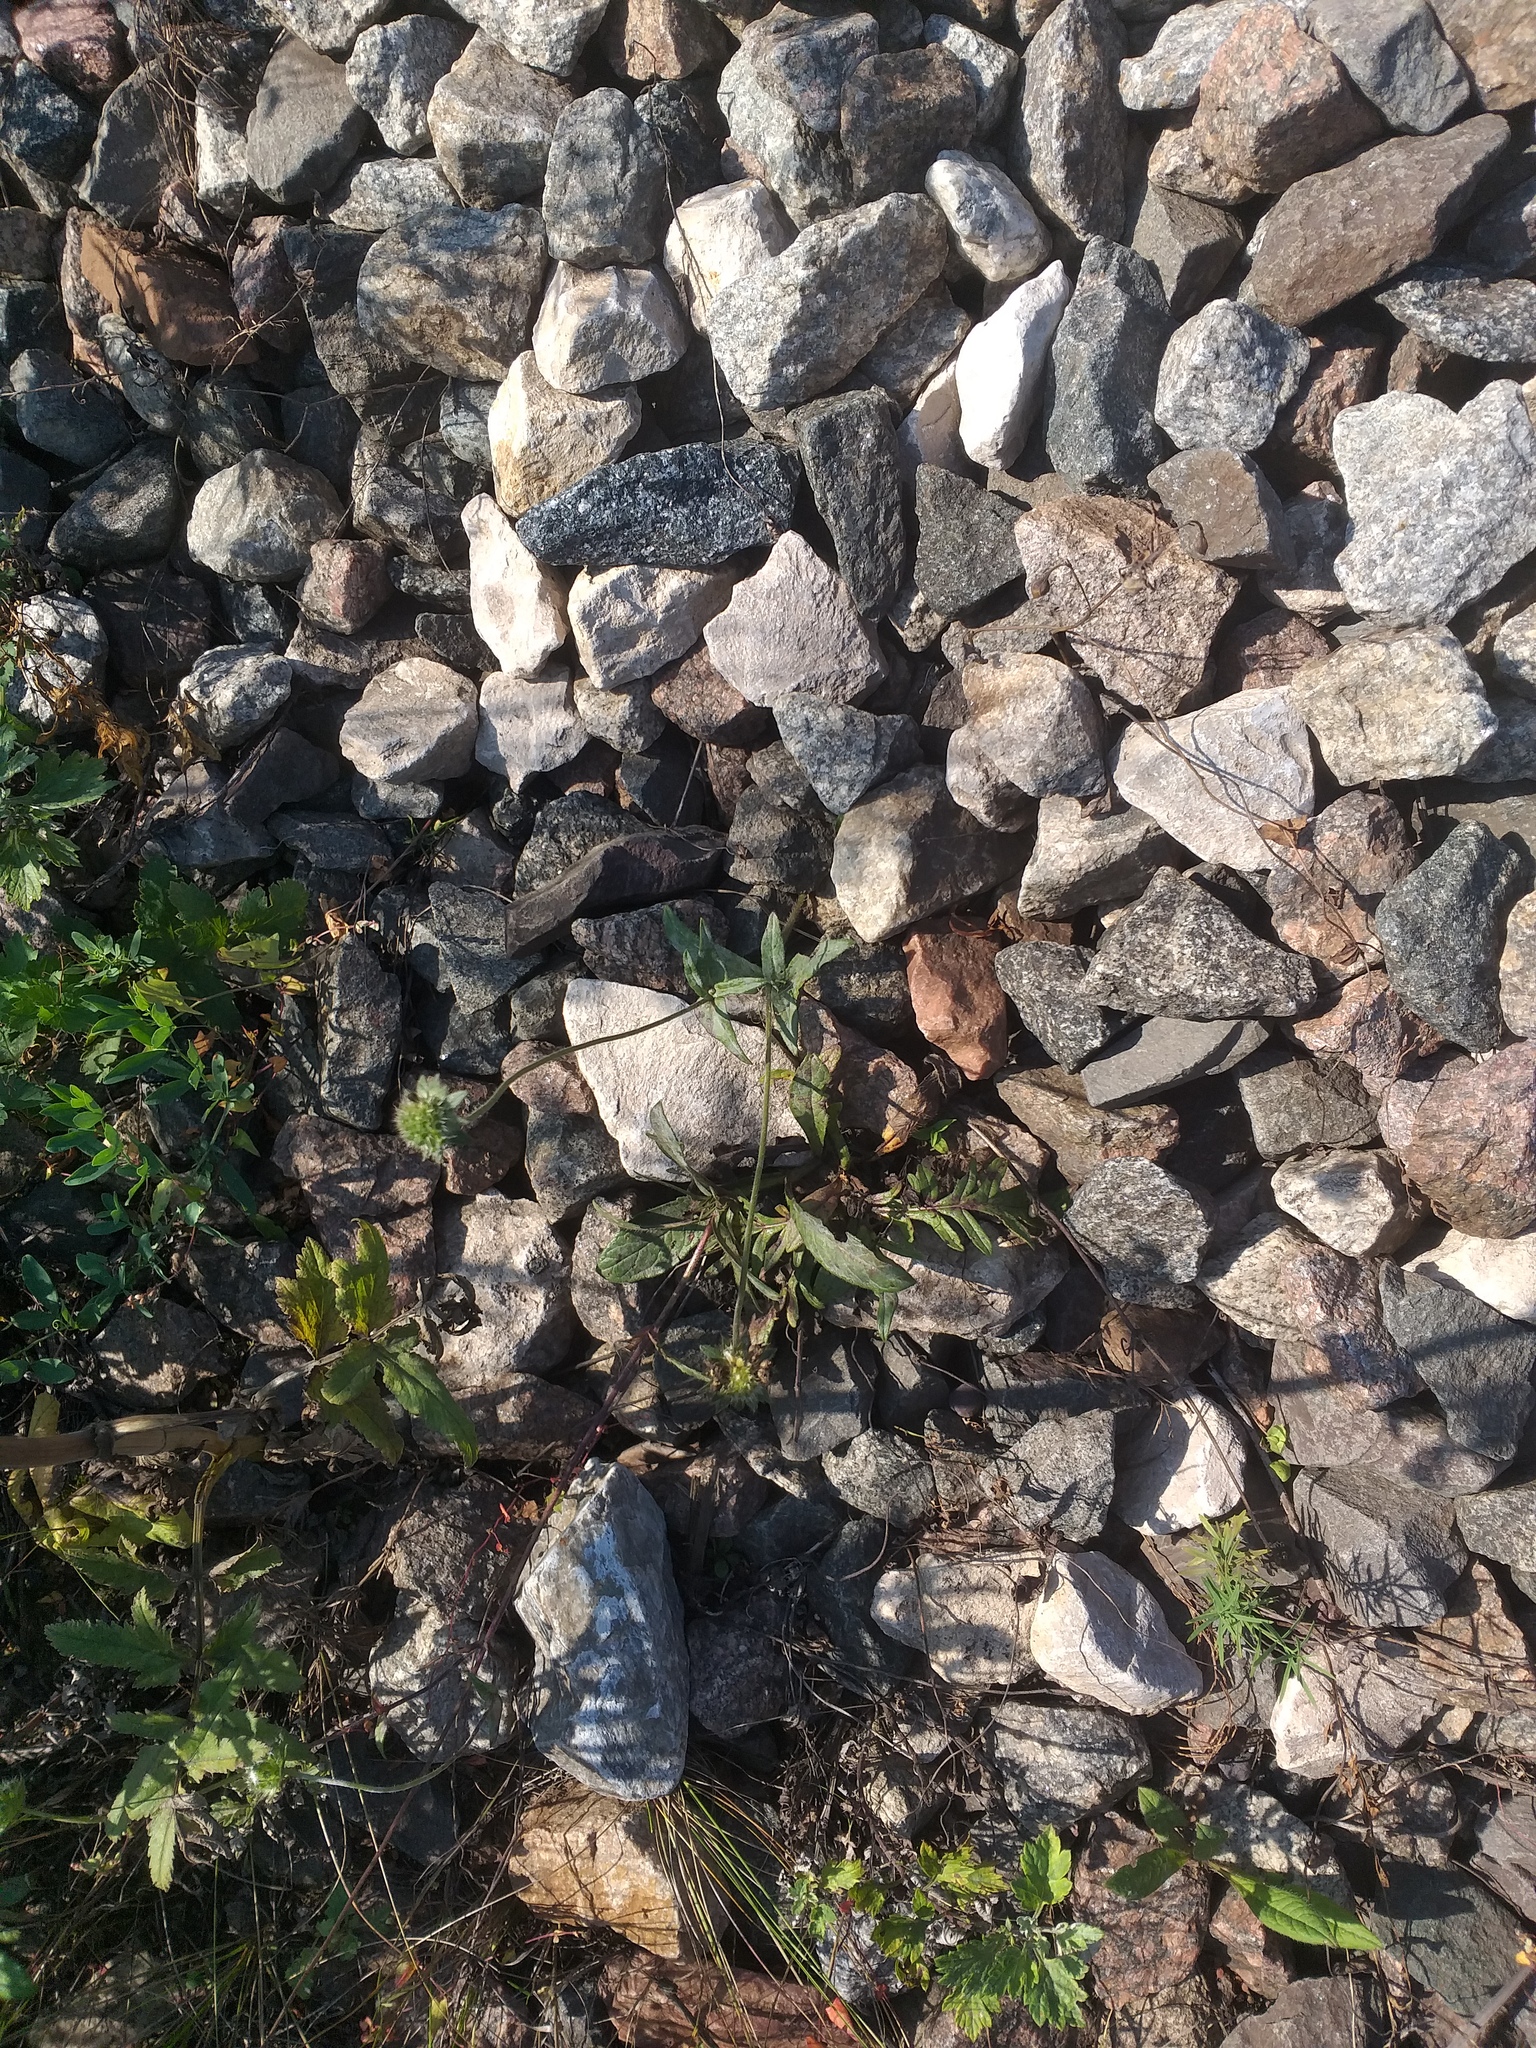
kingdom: Plantae
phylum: Tracheophyta
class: Magnoliopsida
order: Dipsacales
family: Caprifoliaceae
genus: Knautia
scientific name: Knautia arvensis
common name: Field scabiosa
